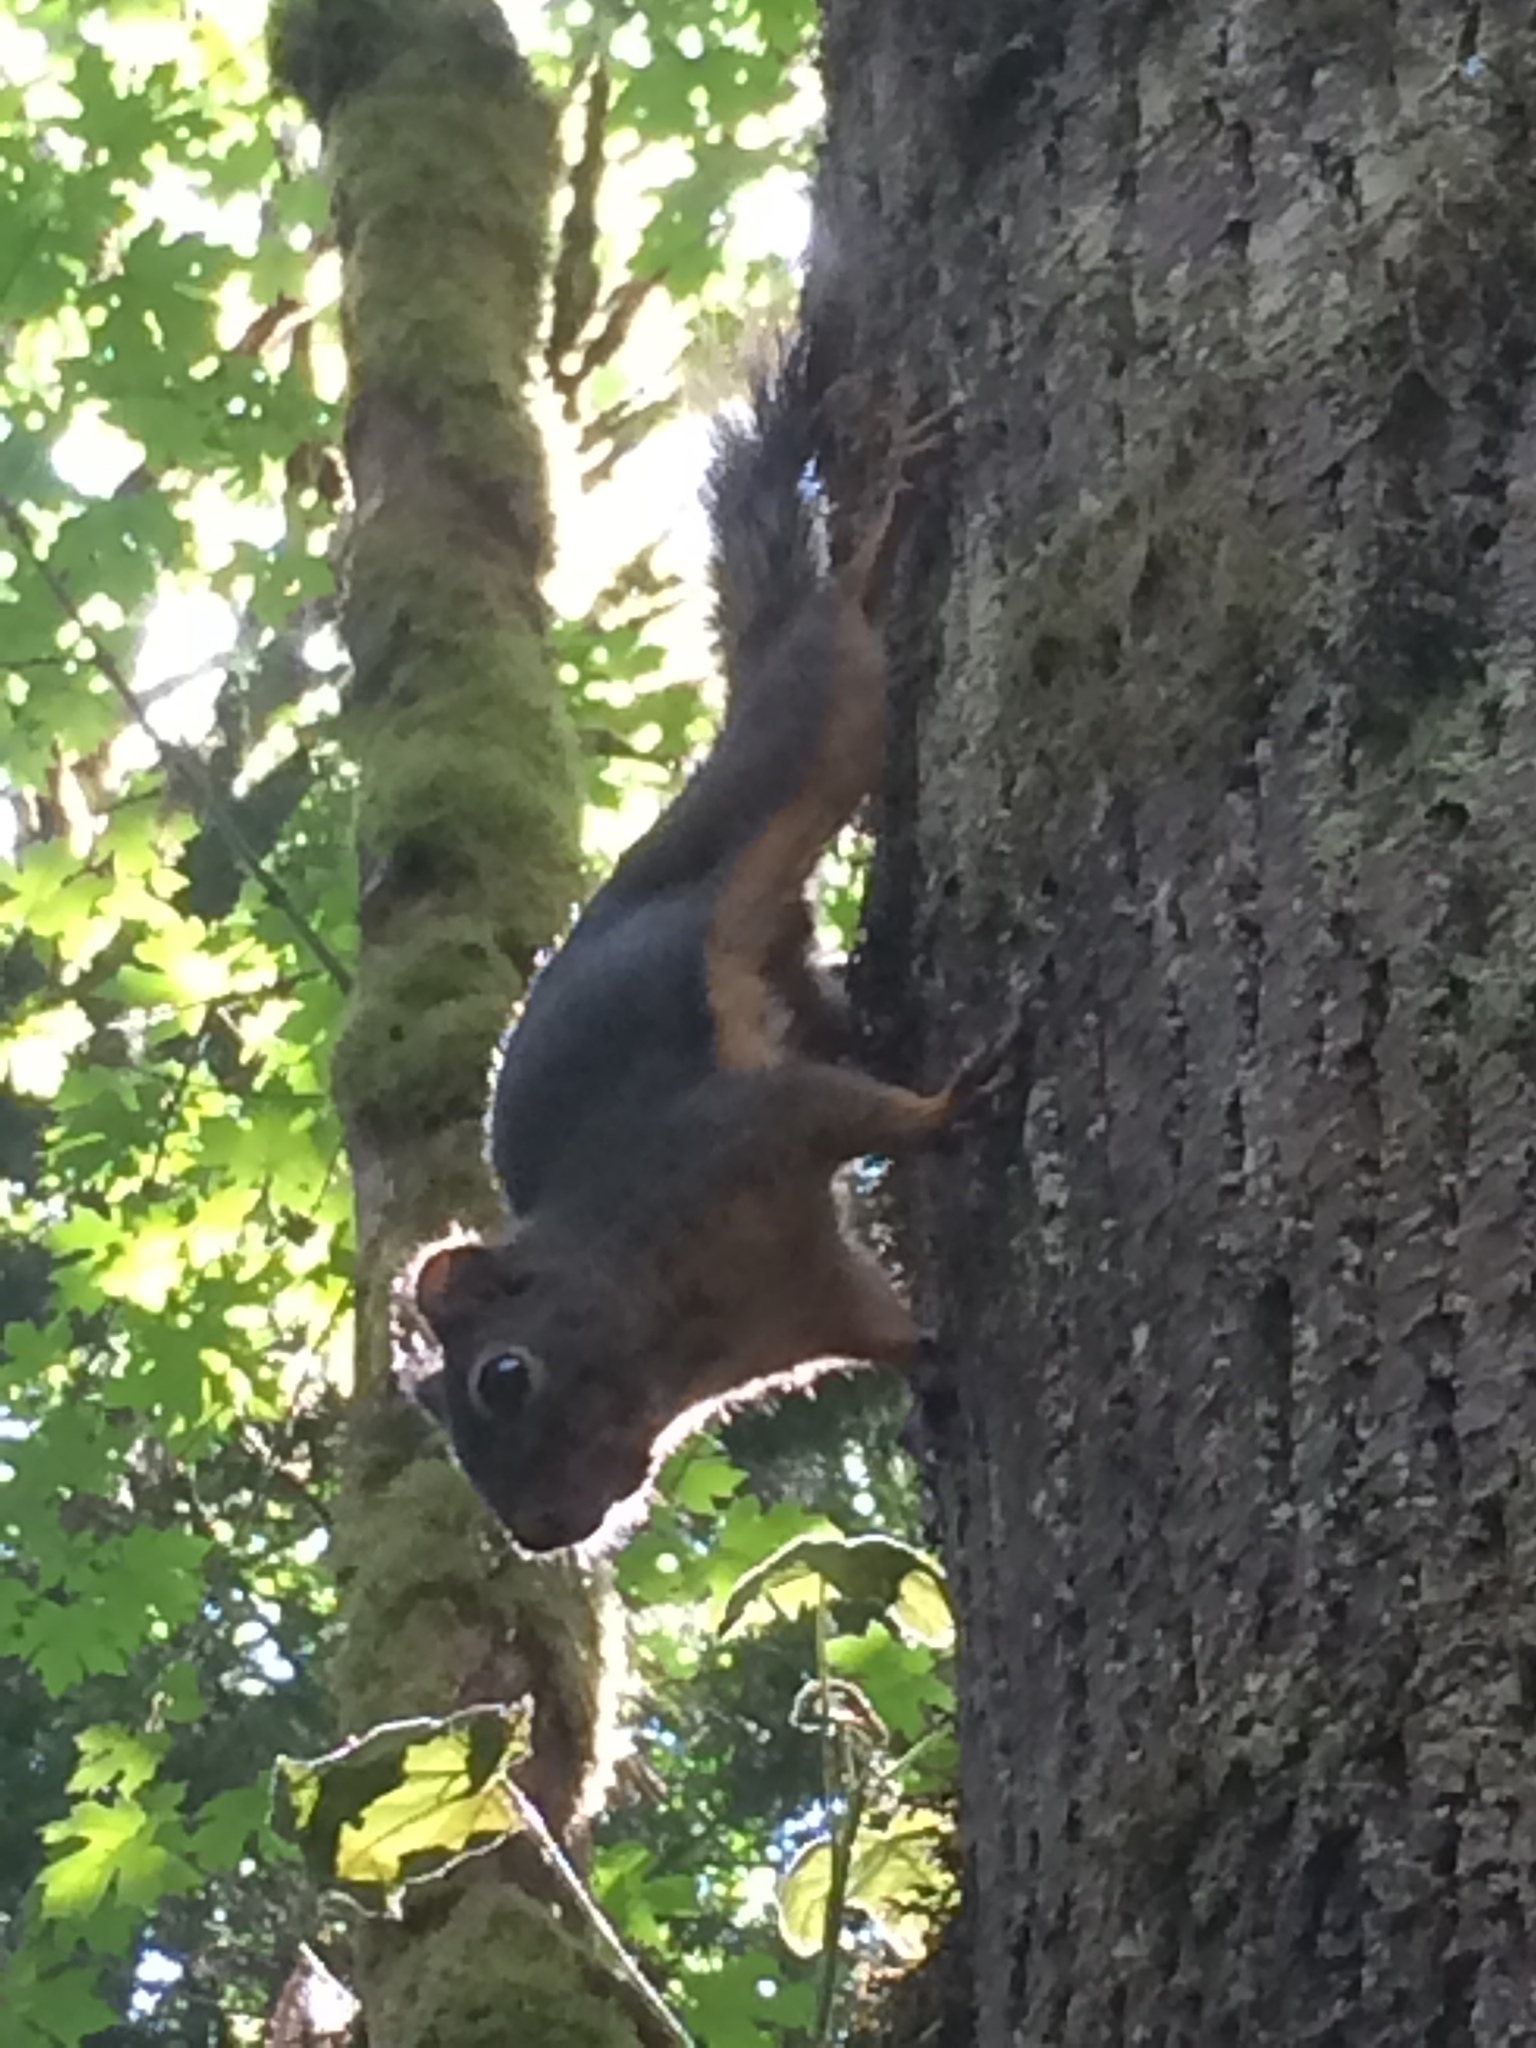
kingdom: Animalia
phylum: Chordata
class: Mammalia
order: Rodentia
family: Sciuridae
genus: Tamiasciurus
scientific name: Tamiasciurus douglasii
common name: Douglas's squirrel
